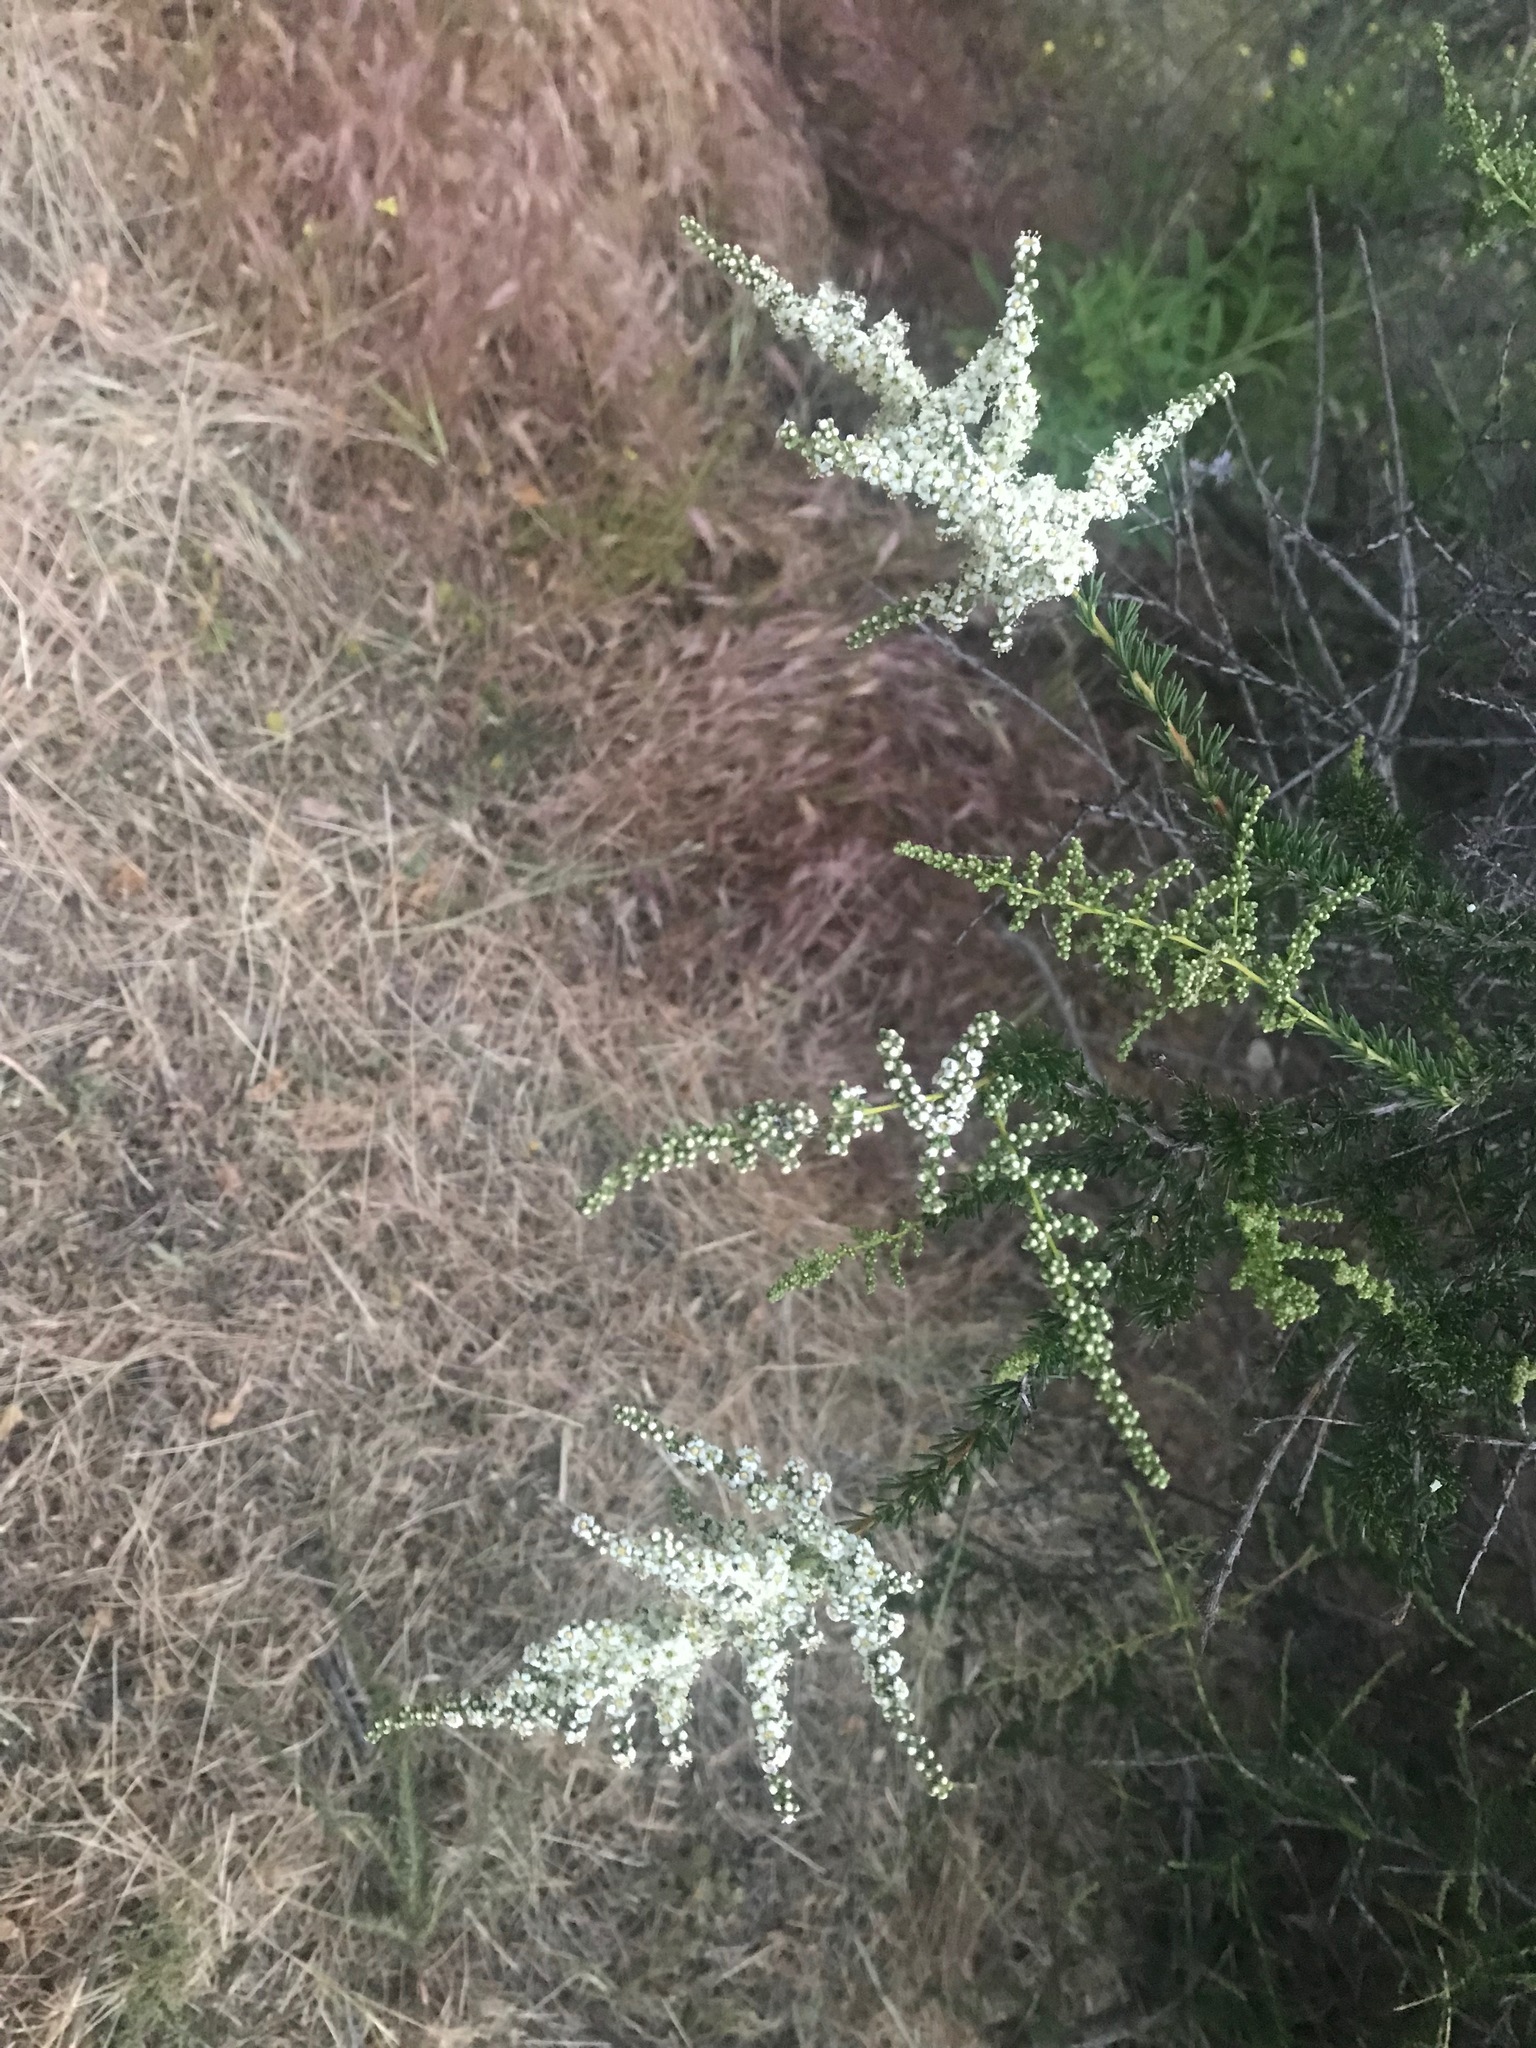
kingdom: Plantae
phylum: Tracheophyta
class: Magnoliopsida
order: Rosales
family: Rosaceae
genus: Adenostoma
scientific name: Adenostoma fasciculatum
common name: Chamise
